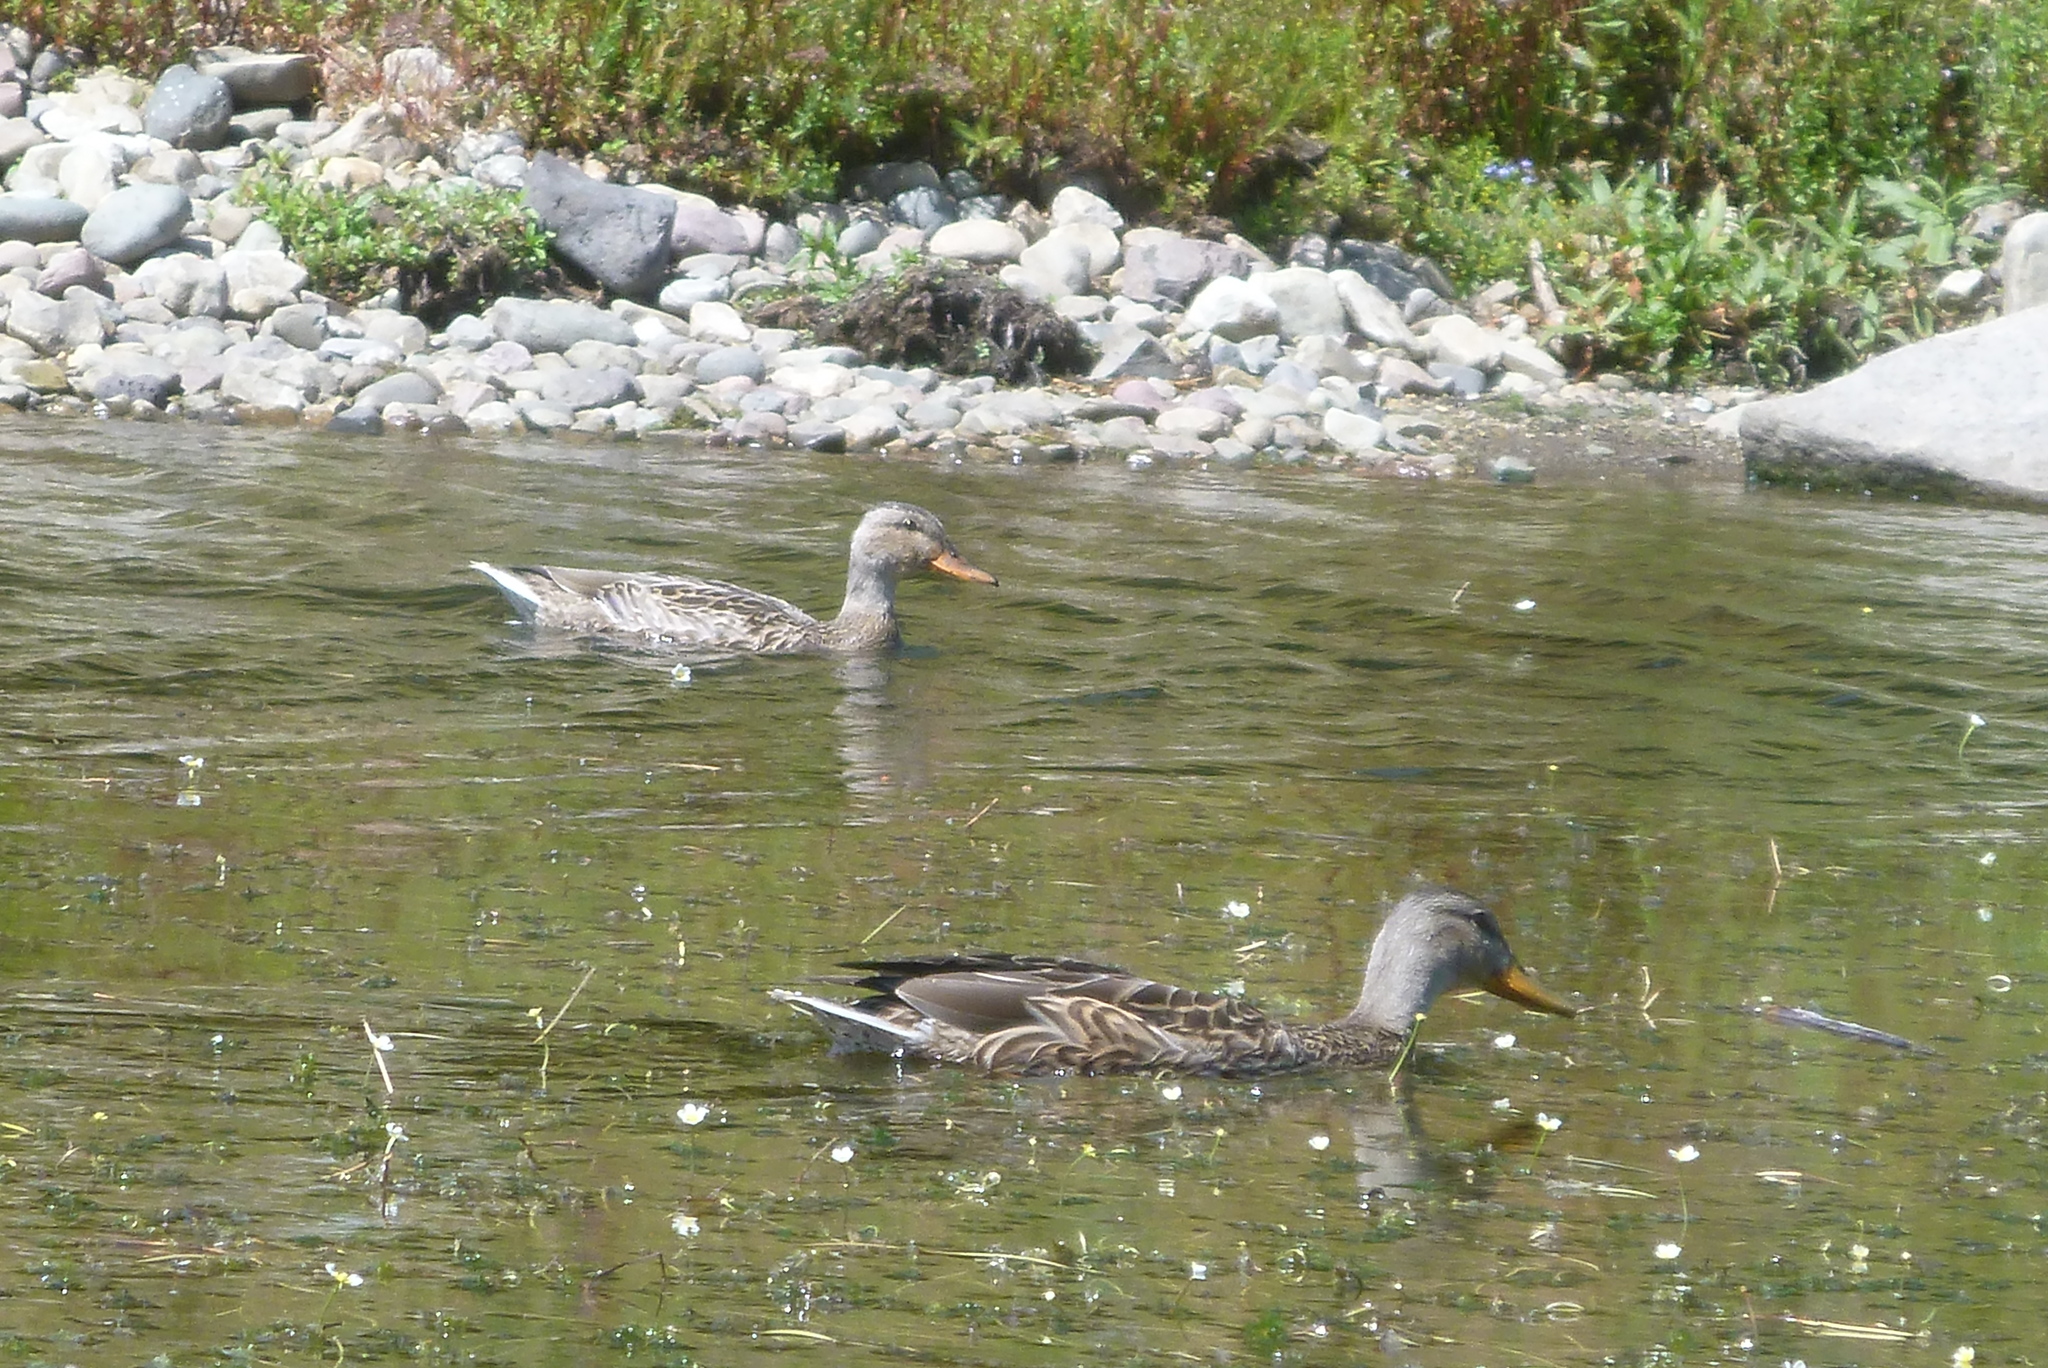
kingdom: Animalia
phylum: Chordata
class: Aves
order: Anseriformes
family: Anatidae
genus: Anas
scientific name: Anas platyrhynchos
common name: Mallard
